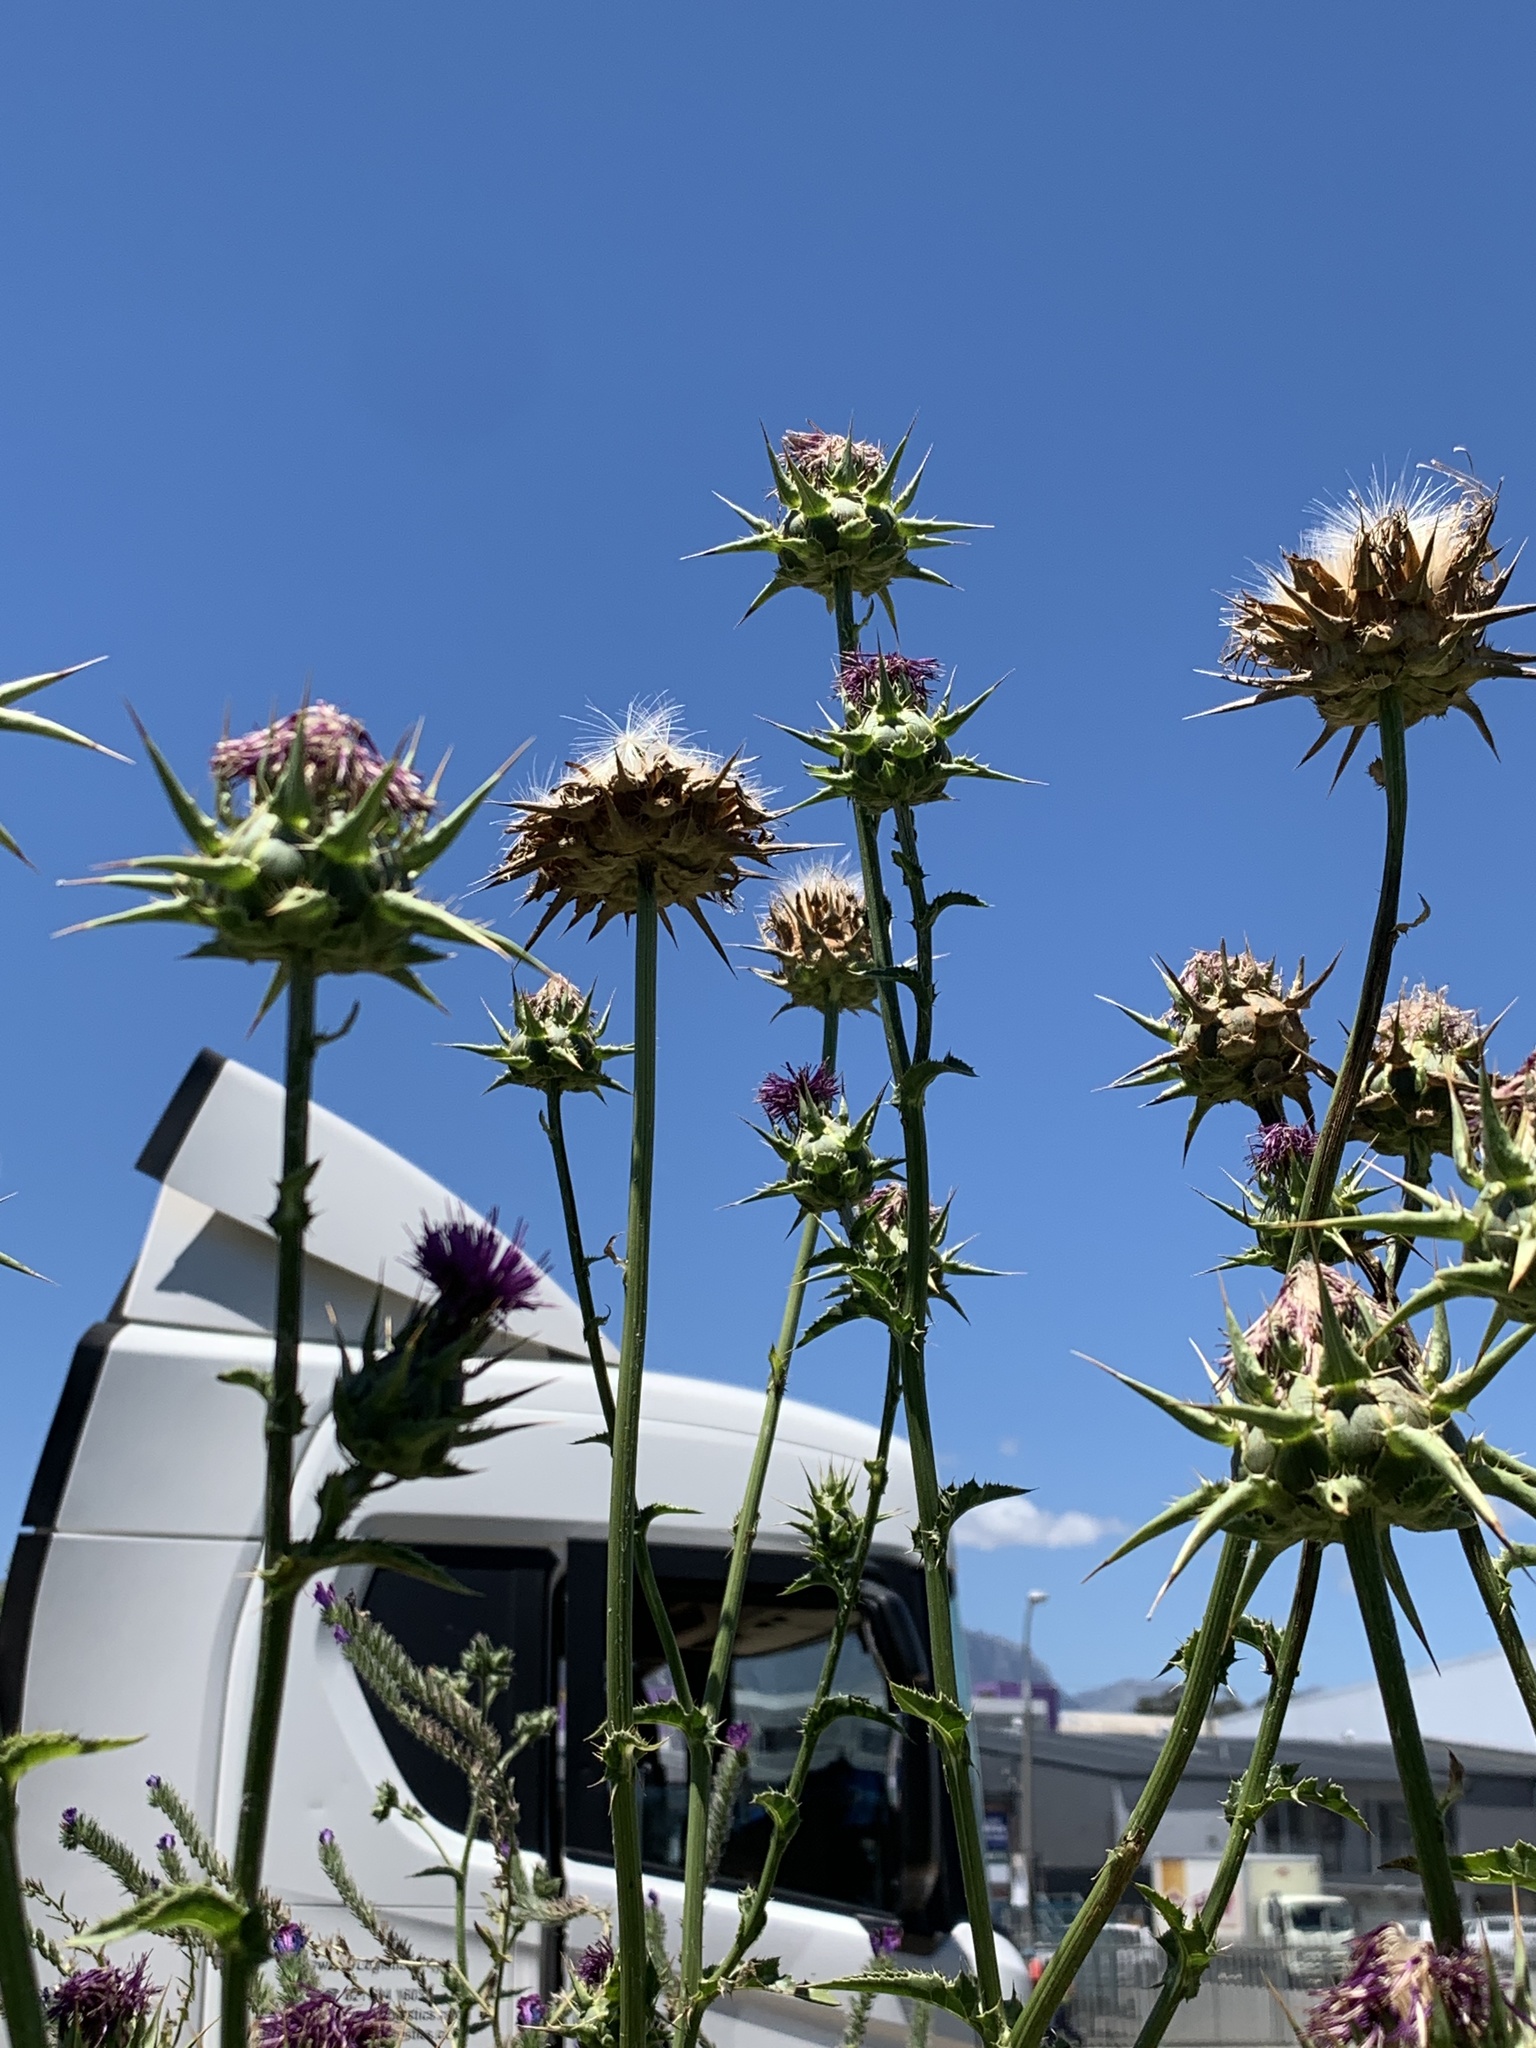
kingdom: Plantae
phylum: Tracheophyta
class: Magnoliopsida
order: Asterales
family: Asteraceae
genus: Silybum
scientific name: Silybum marianum
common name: Milk thistle
